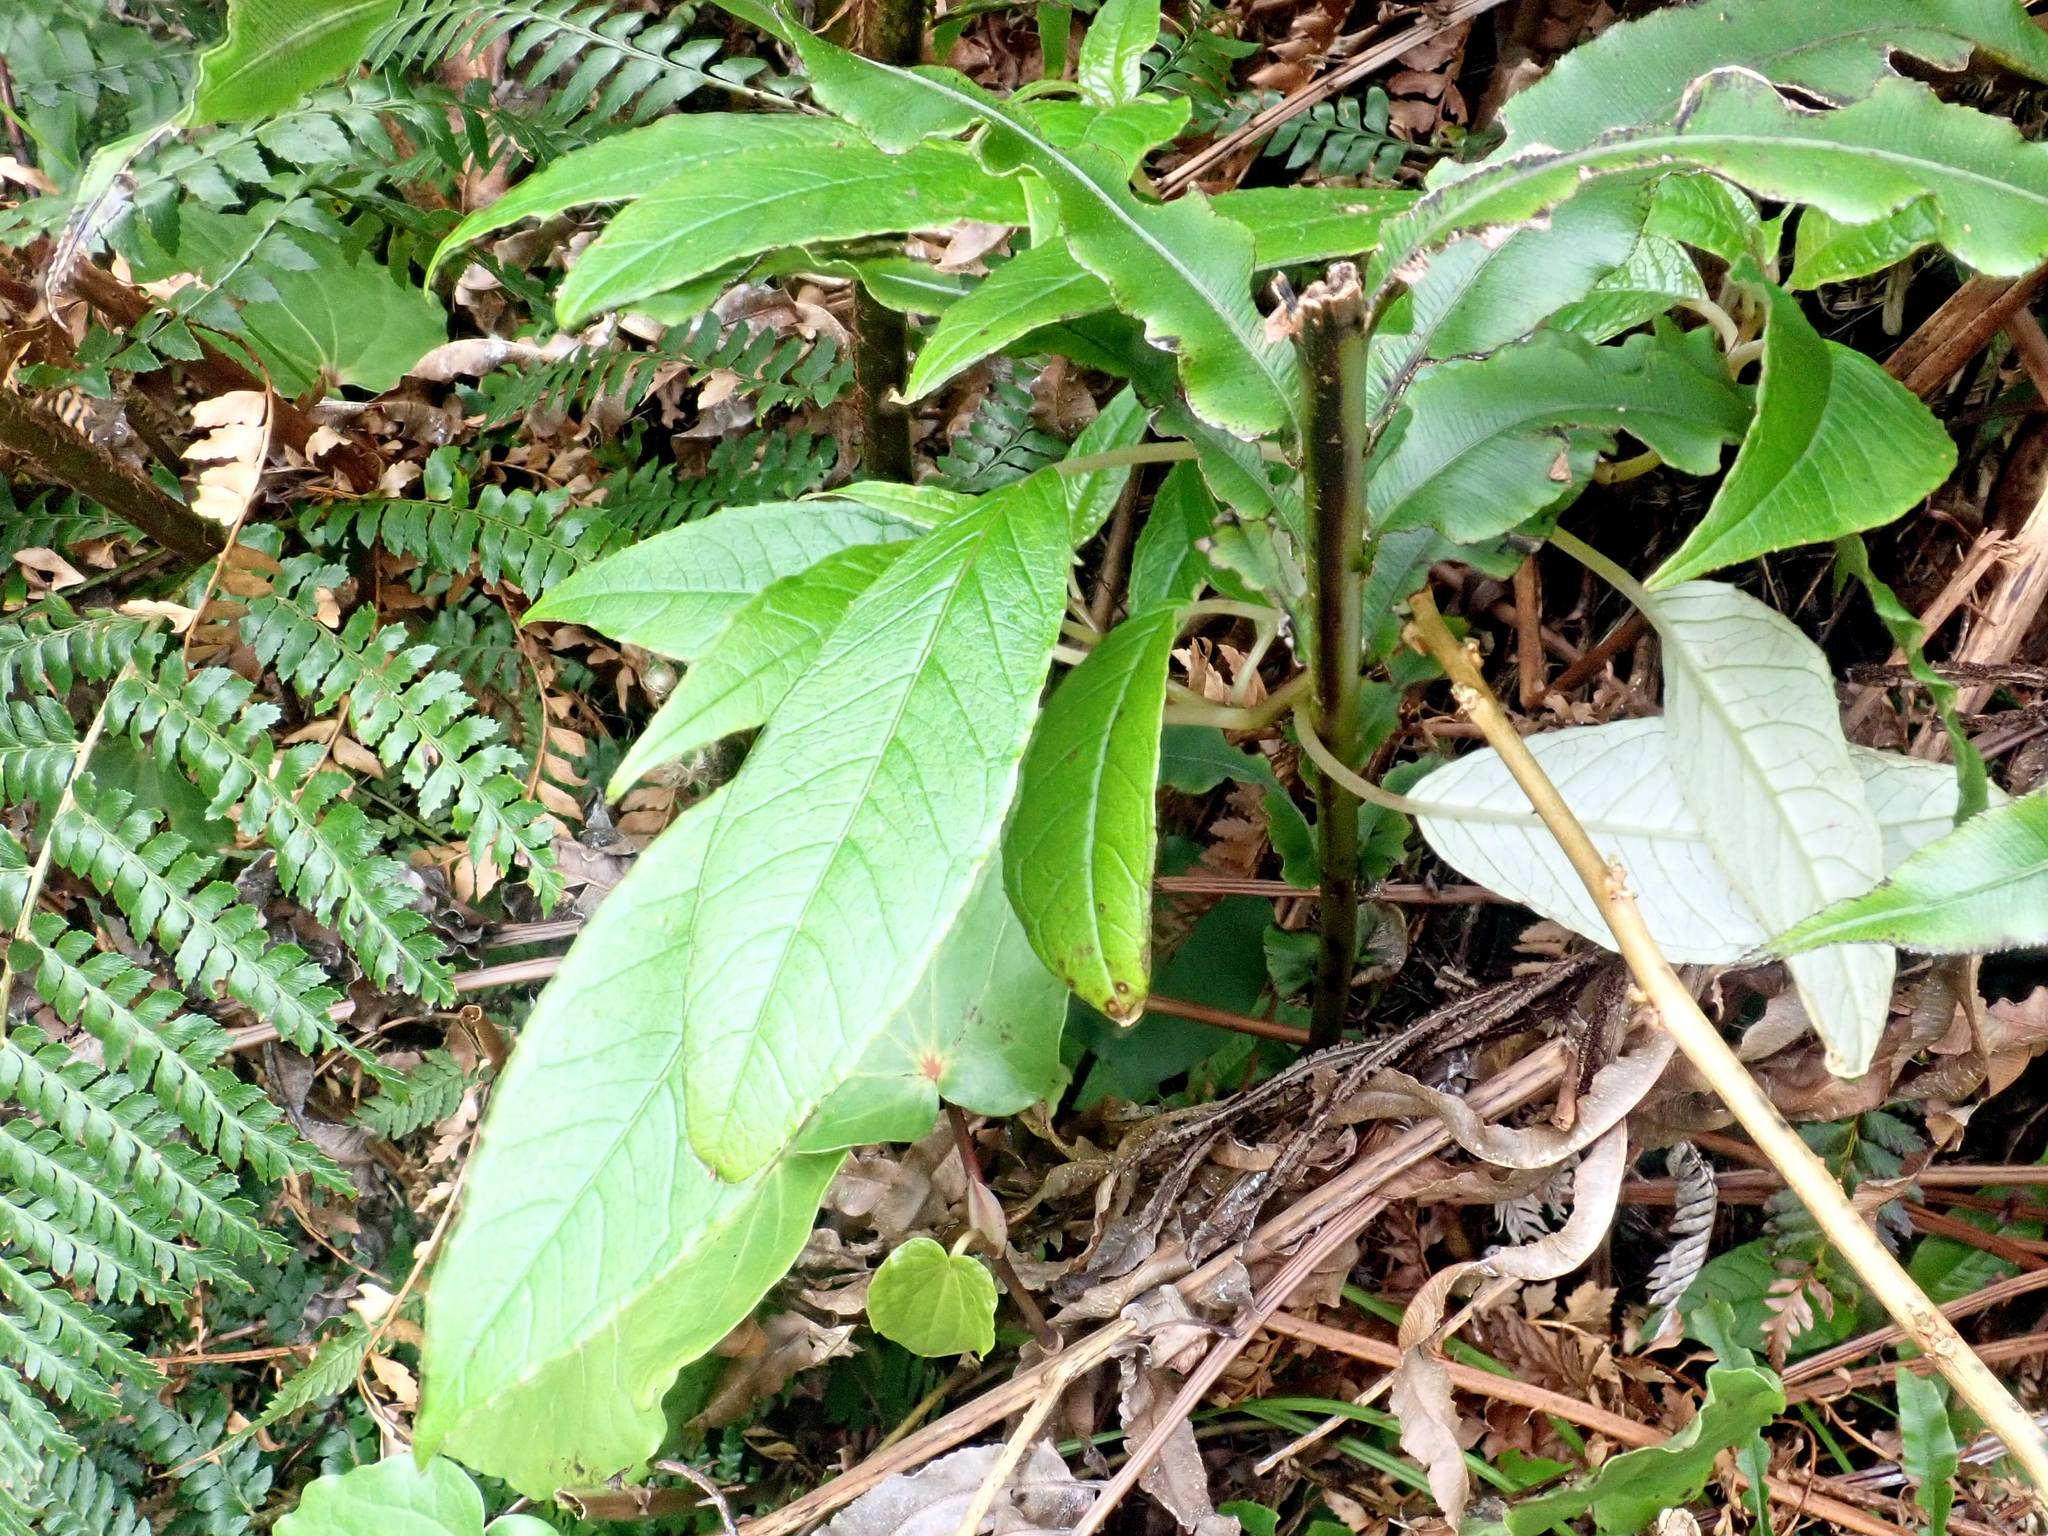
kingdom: Plantae
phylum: Tracheophyta
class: Magnoliopsida
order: Myrtales
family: Onagraceae
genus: Fuchsia
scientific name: Fuchsia excorticata
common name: Tree fuchsia
